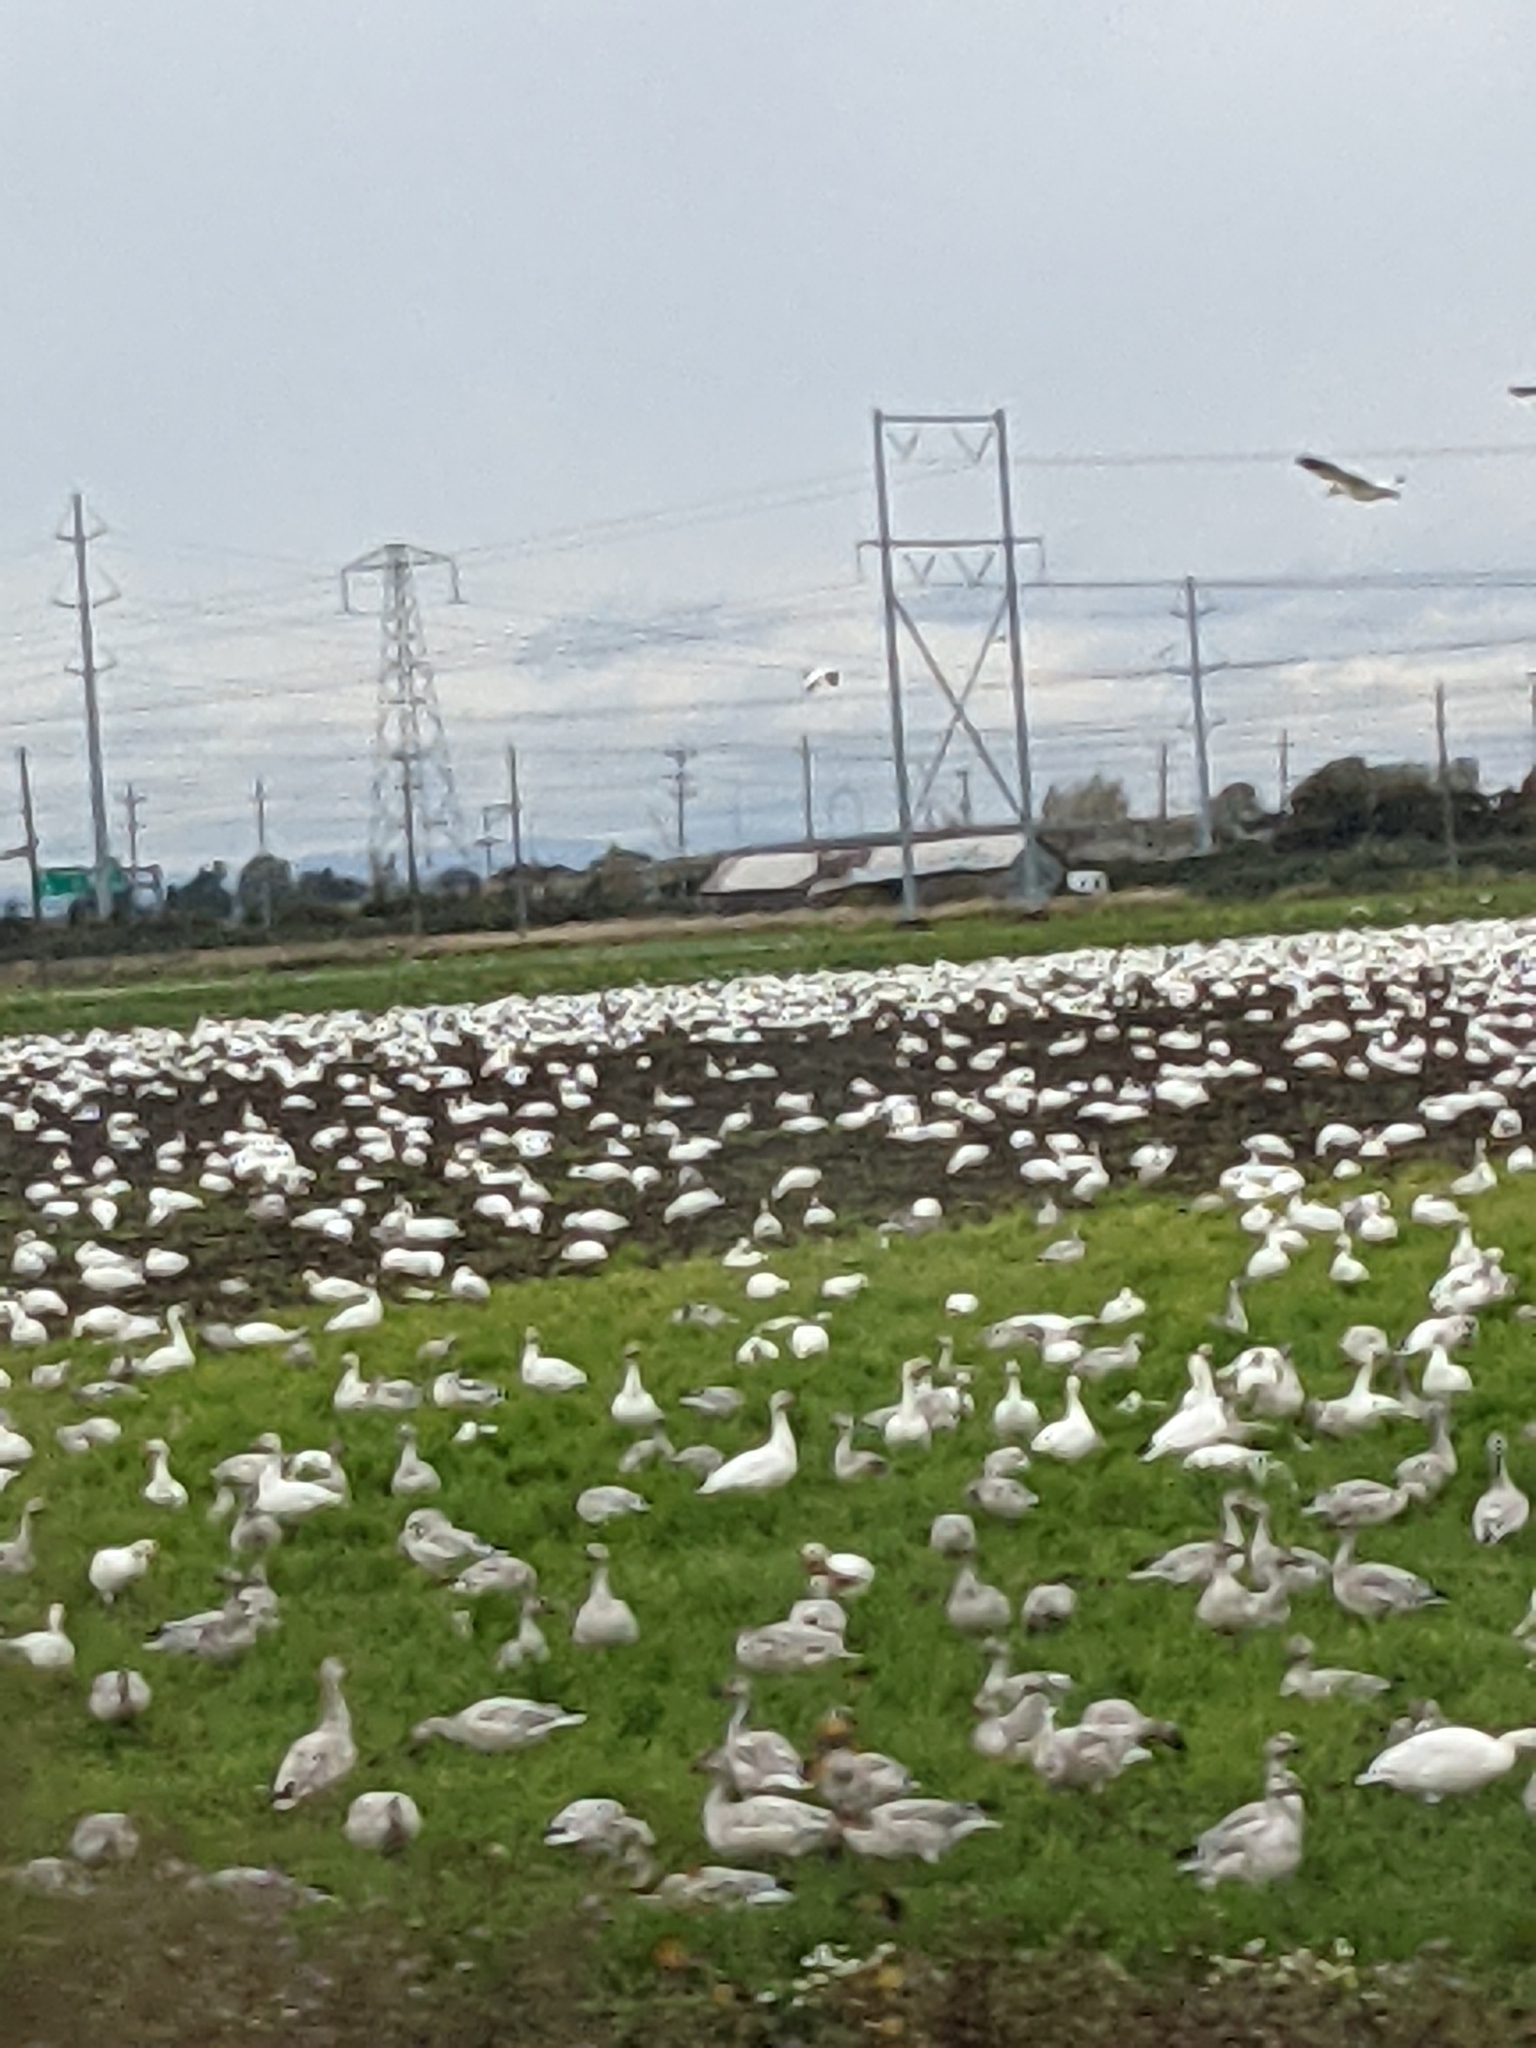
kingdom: Animalia
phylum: Chordata
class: Aves
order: Anseriformes
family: Anatidae
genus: Anser
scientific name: Anser caerulescens
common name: Snow goose
